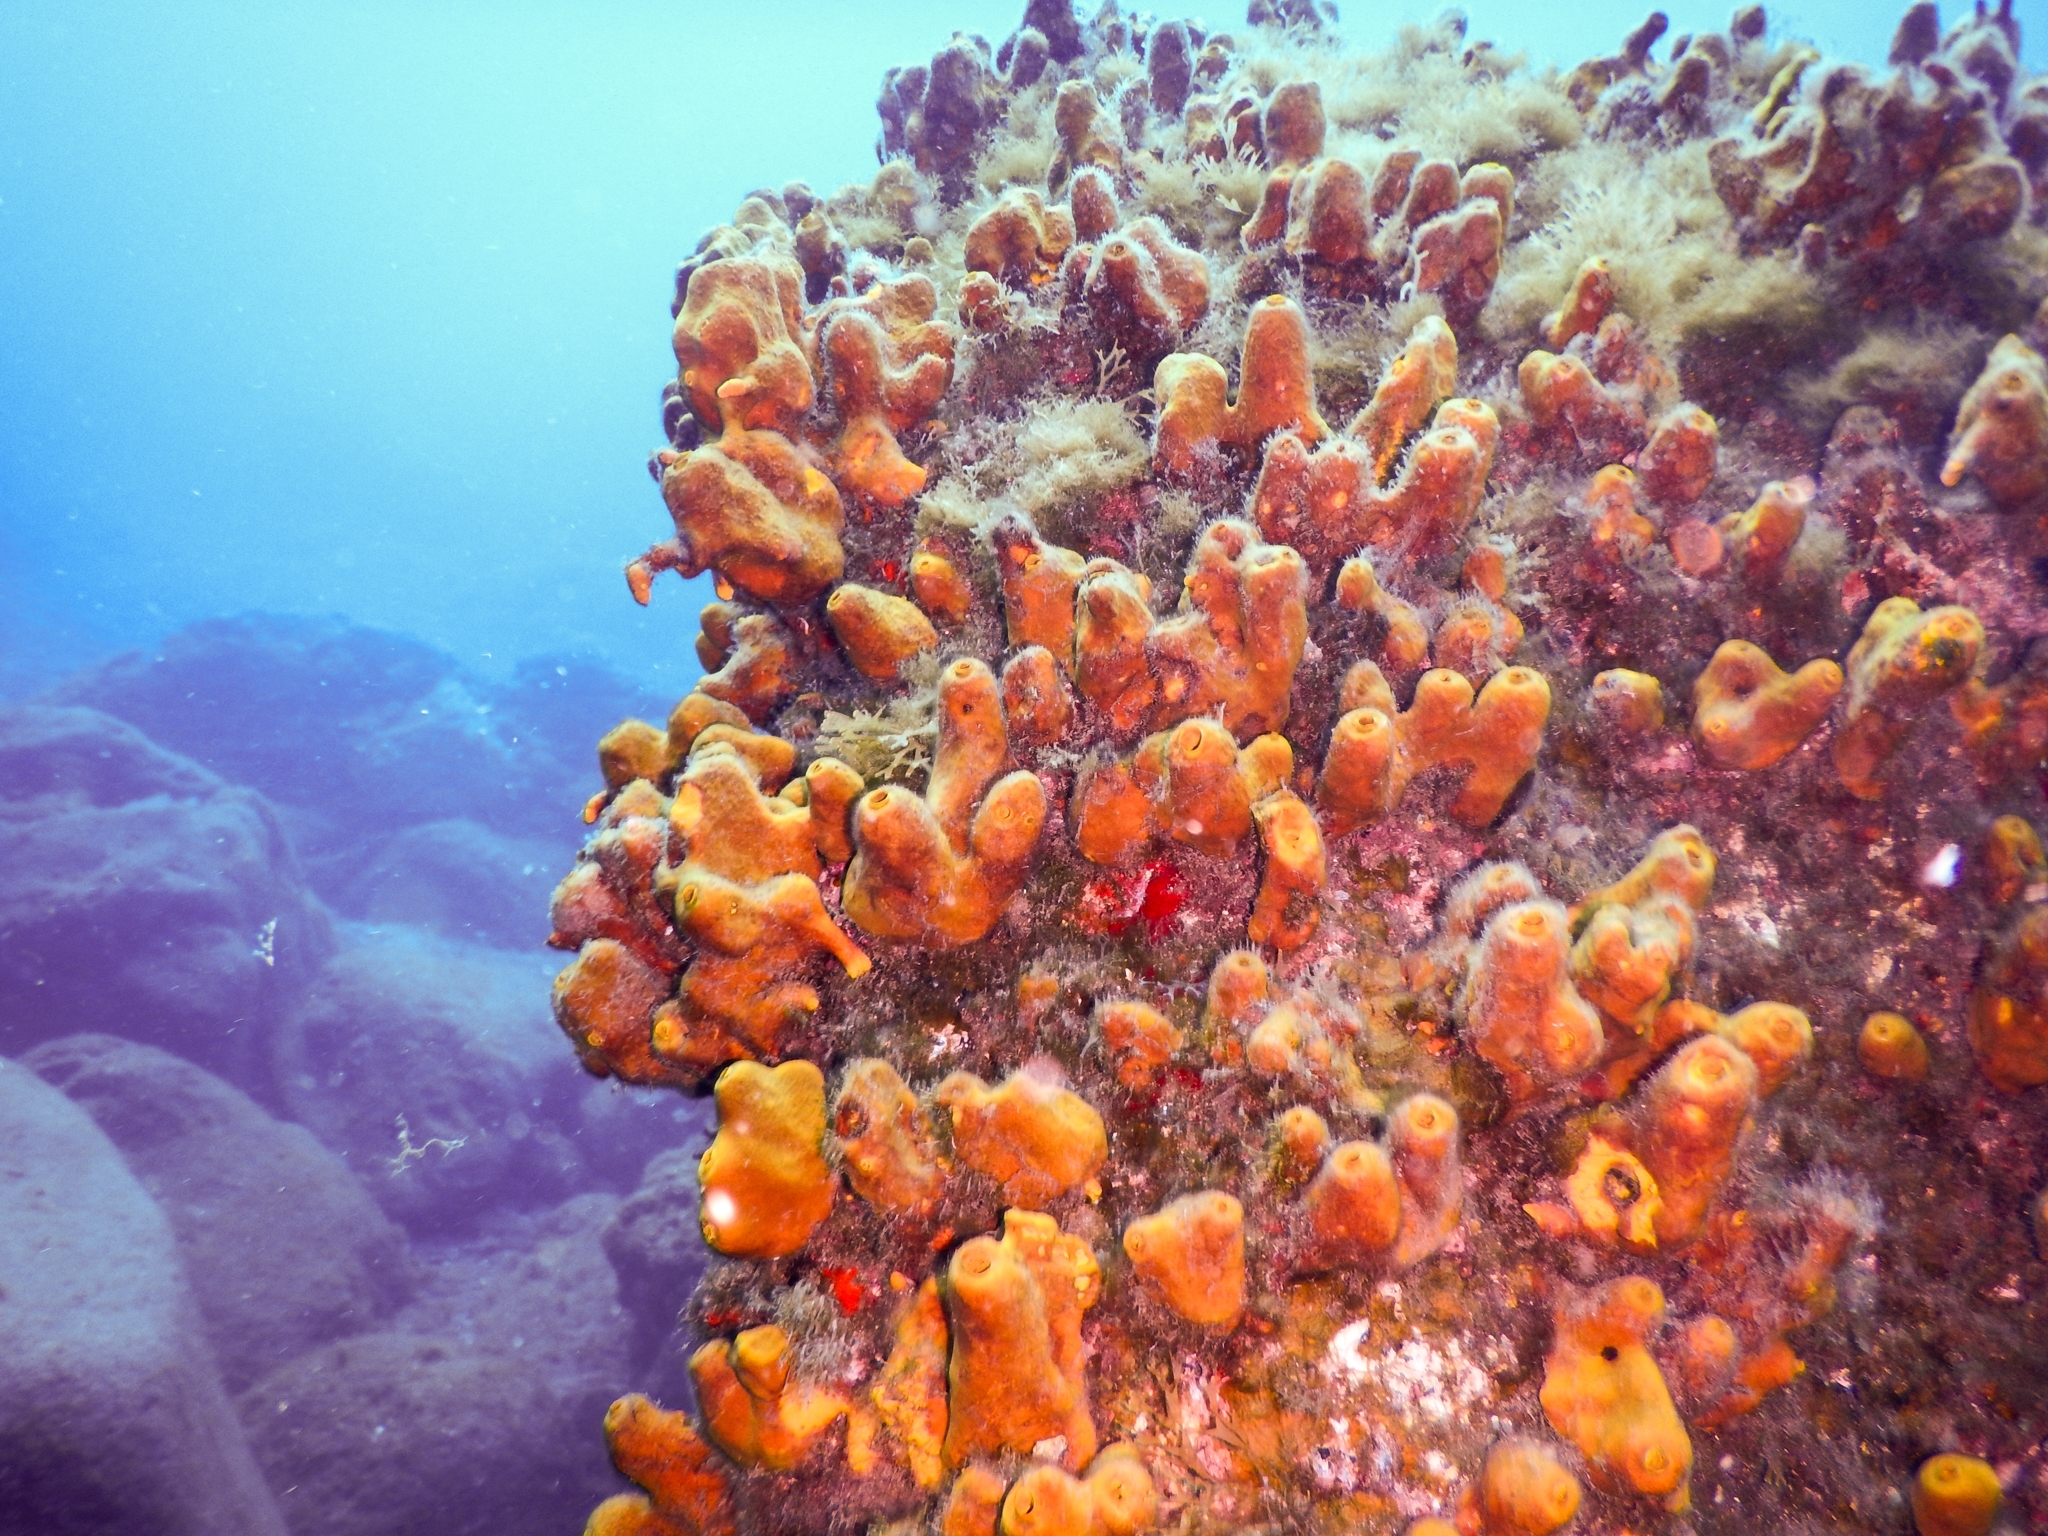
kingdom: Animalia
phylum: Porifera
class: Demospongiae
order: Verongiida
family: Aplysinidae
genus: Aplysina
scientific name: Aplysina aerophoba
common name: Aureate sponge
